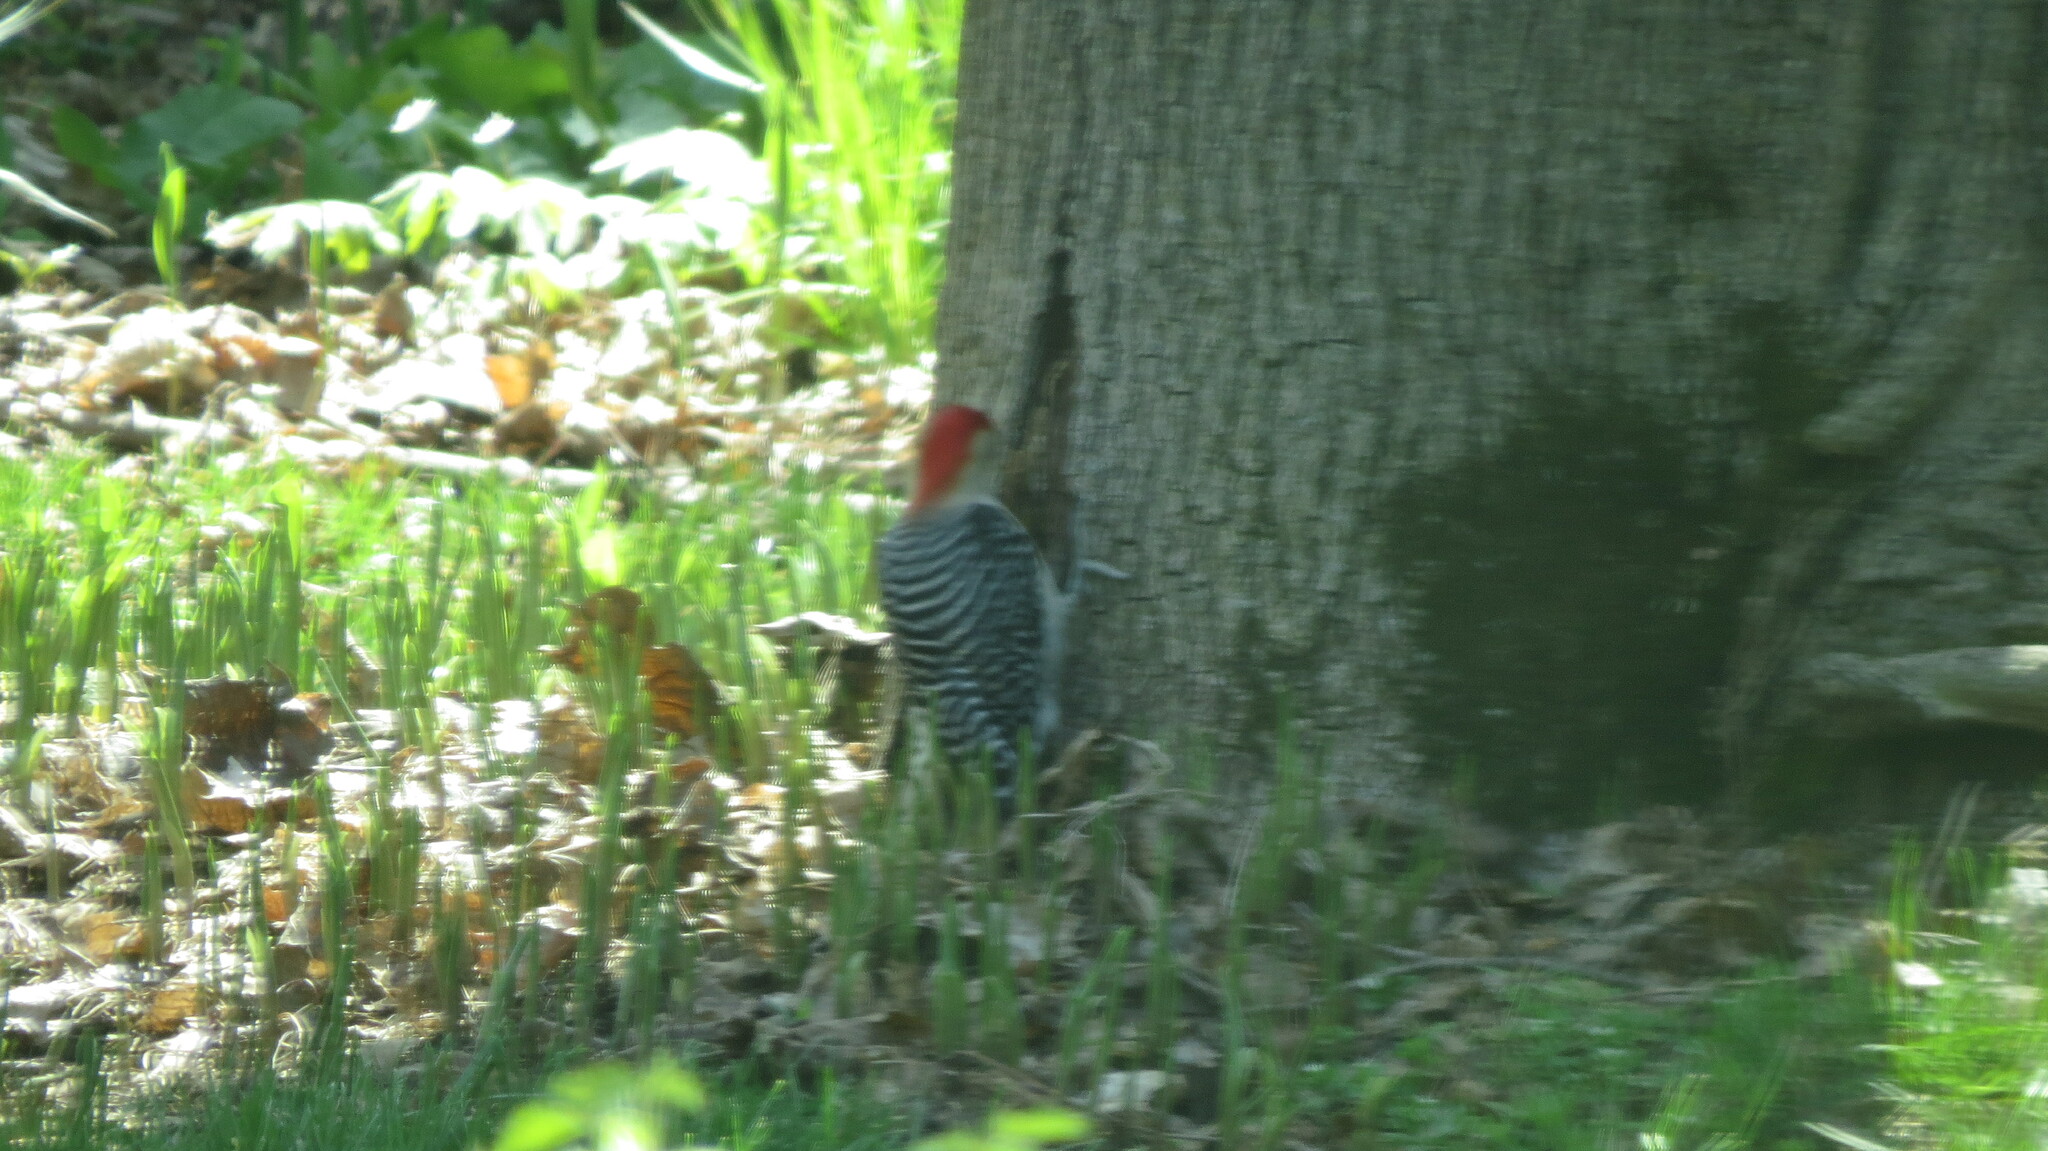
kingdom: Animalia
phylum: Chordata
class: Aves
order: Piciformes
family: Picidae
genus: Melanerpes
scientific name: Melanerpes carolinus
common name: Red-bellied woodpecker
